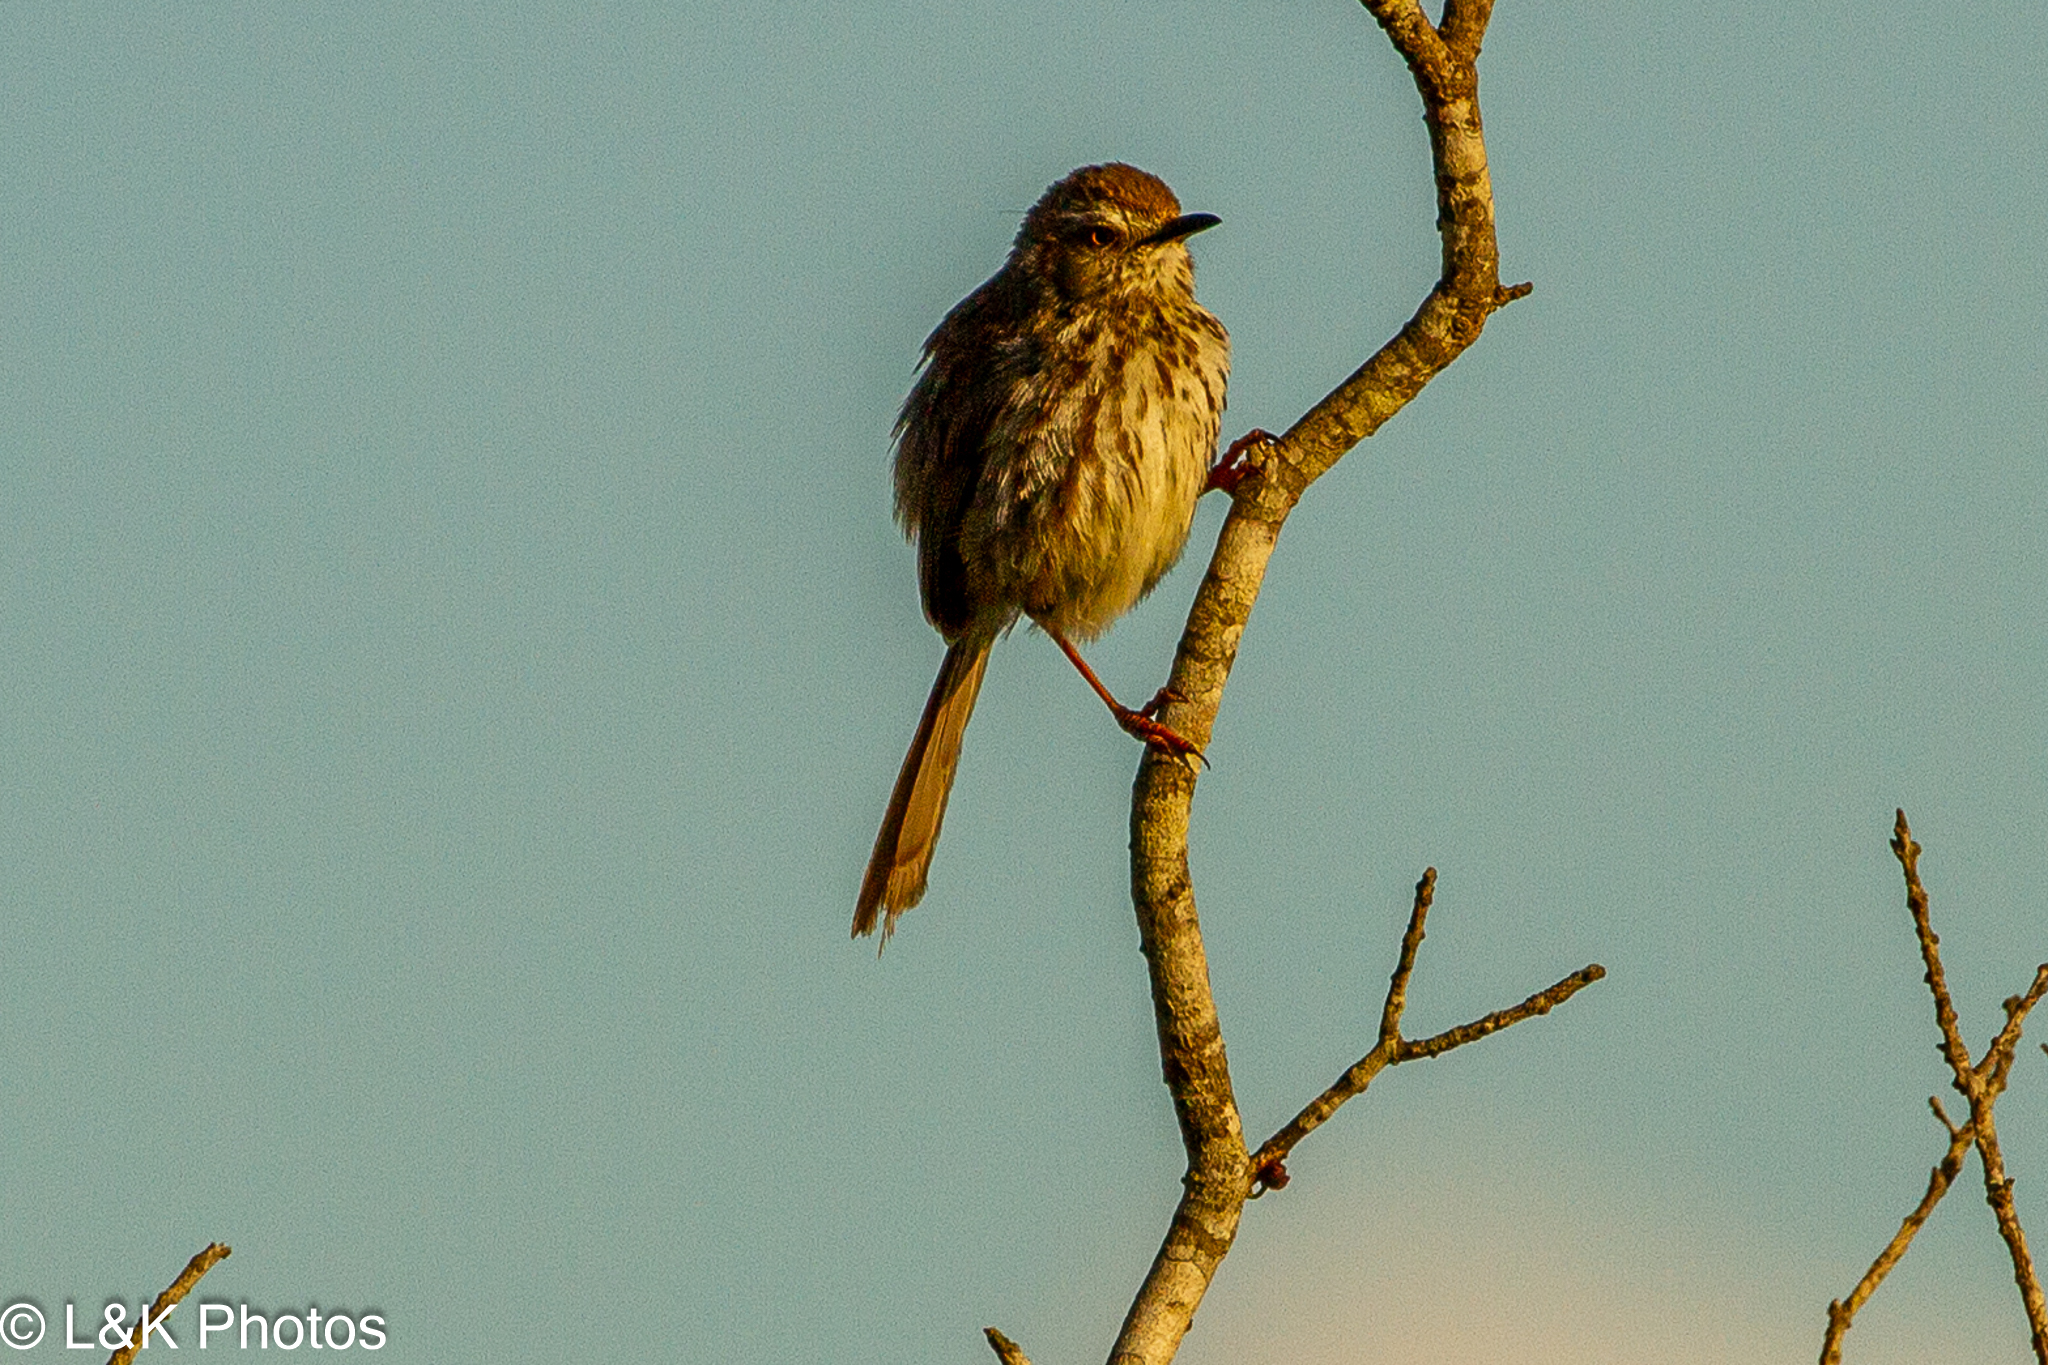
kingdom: Animalia
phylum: Chordata
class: Aves
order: Passeriformes
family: Cisticolidae
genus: Prinia
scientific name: Prinia maculosa
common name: Karoo prinia
